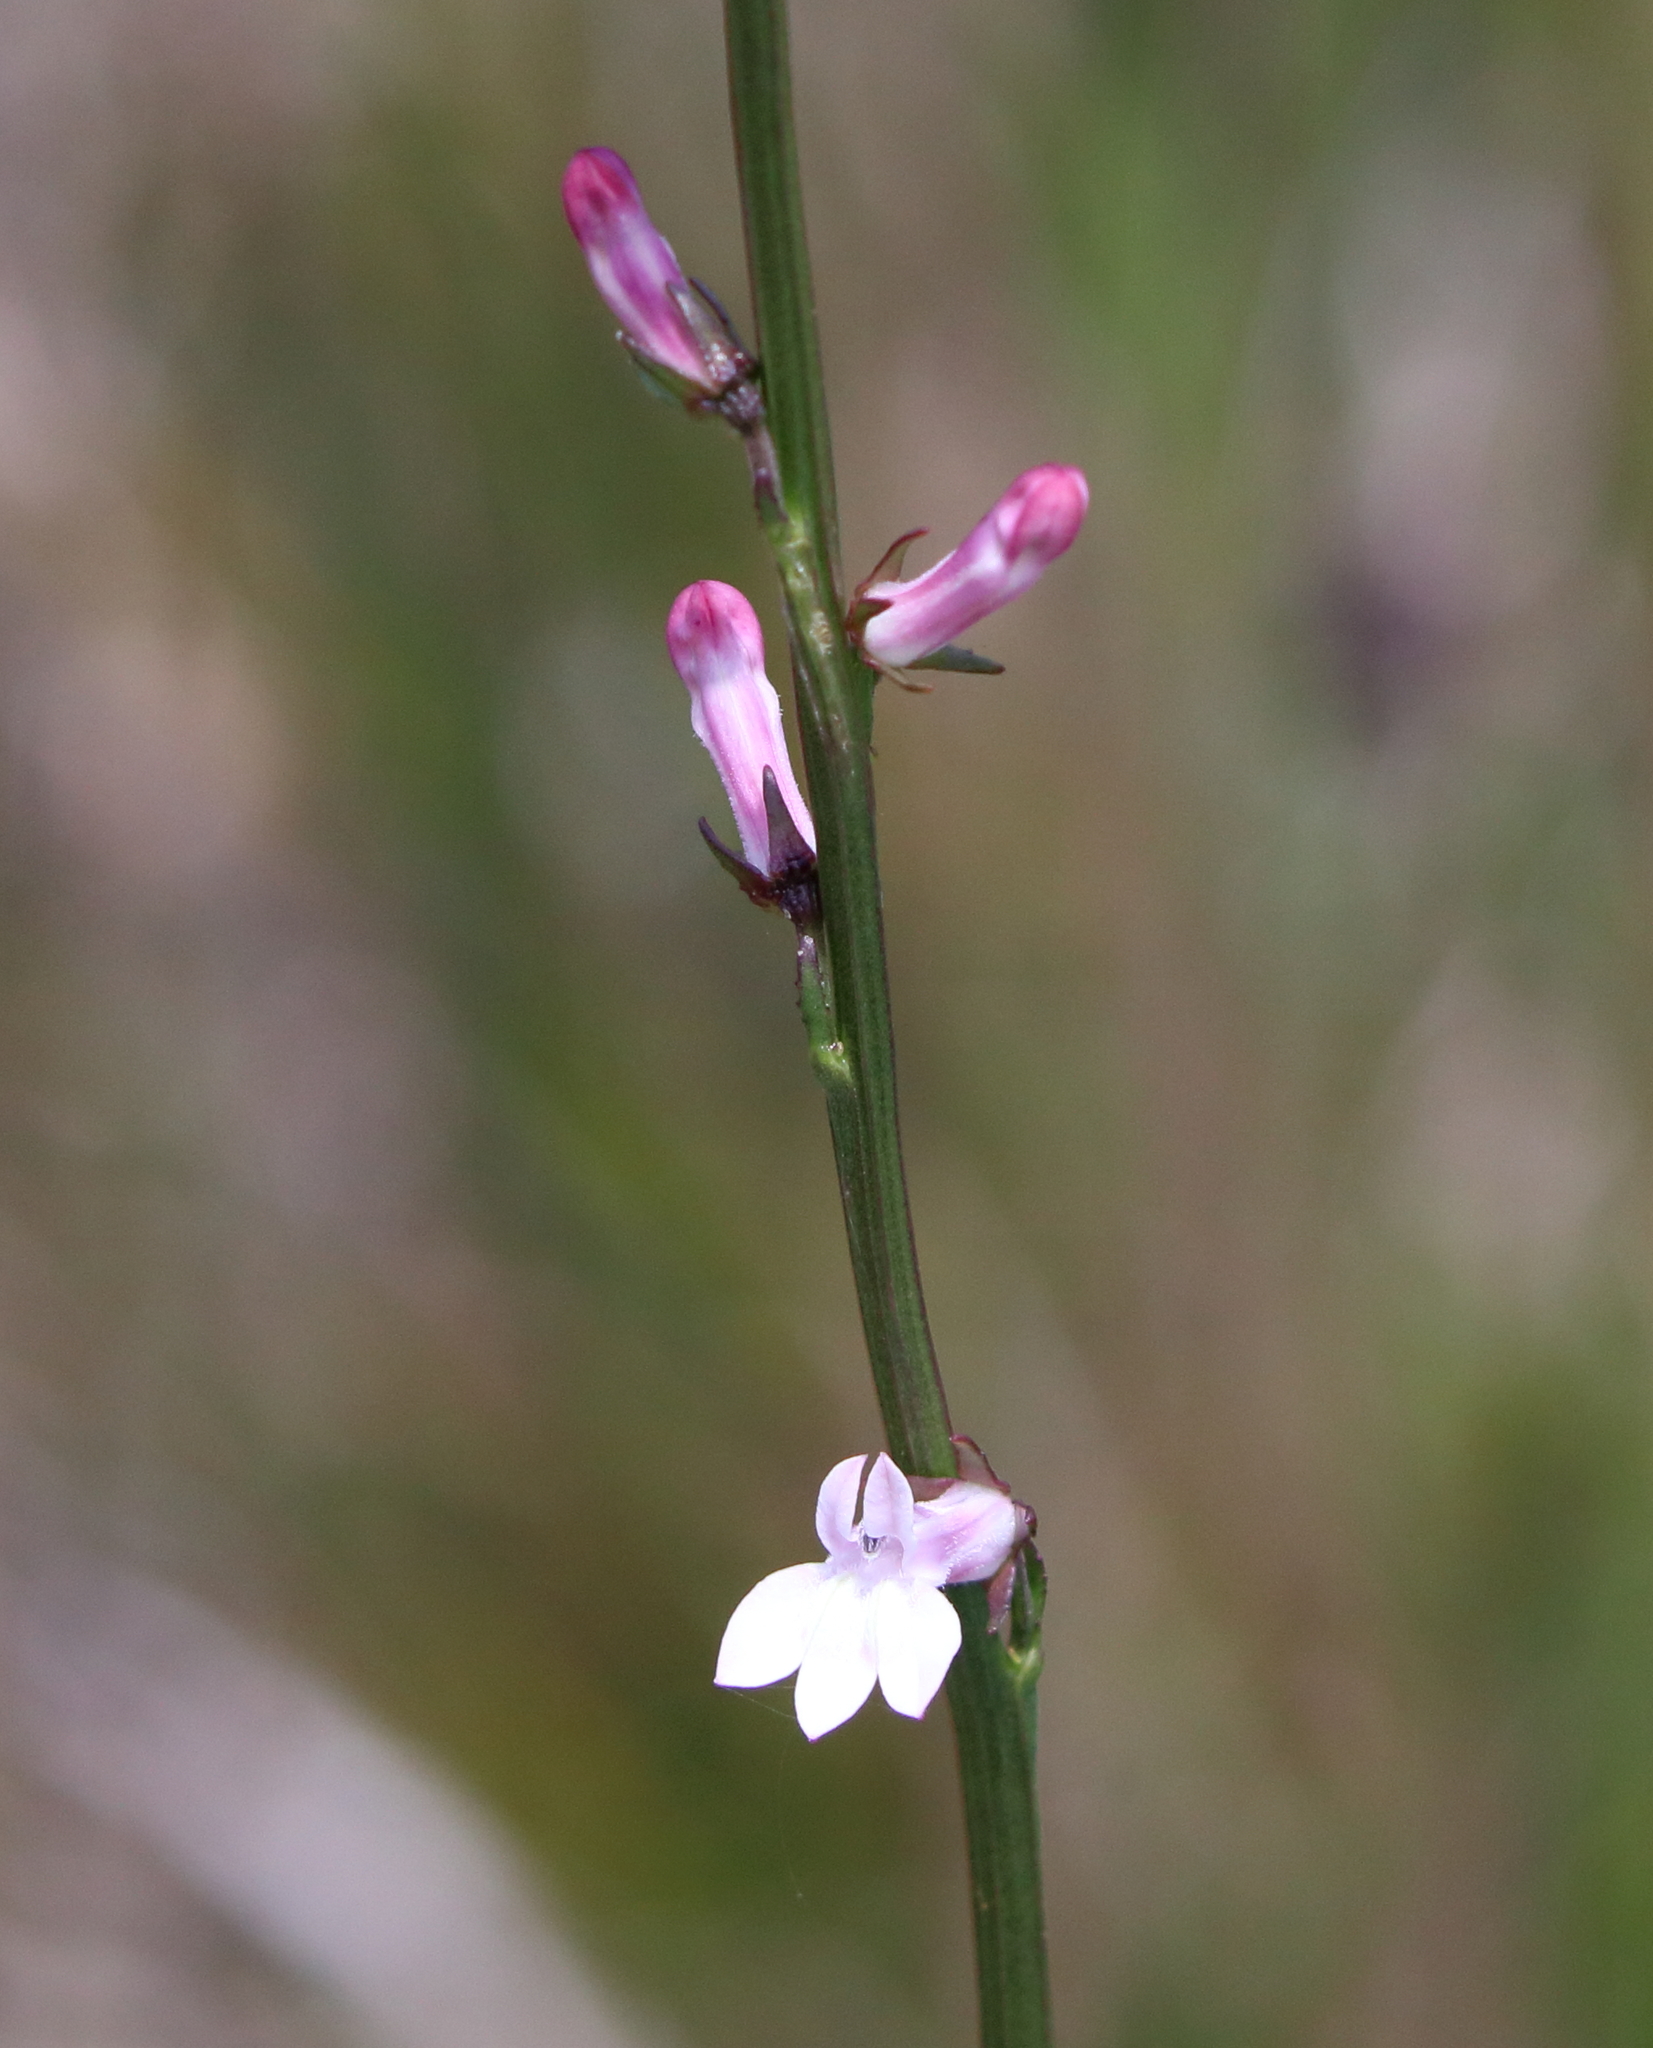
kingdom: Plantae
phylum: Tracheophyta
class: Magnoliopsida
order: Asterales
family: Campanulaceae
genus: Lobelia
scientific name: Lobelia floridana
